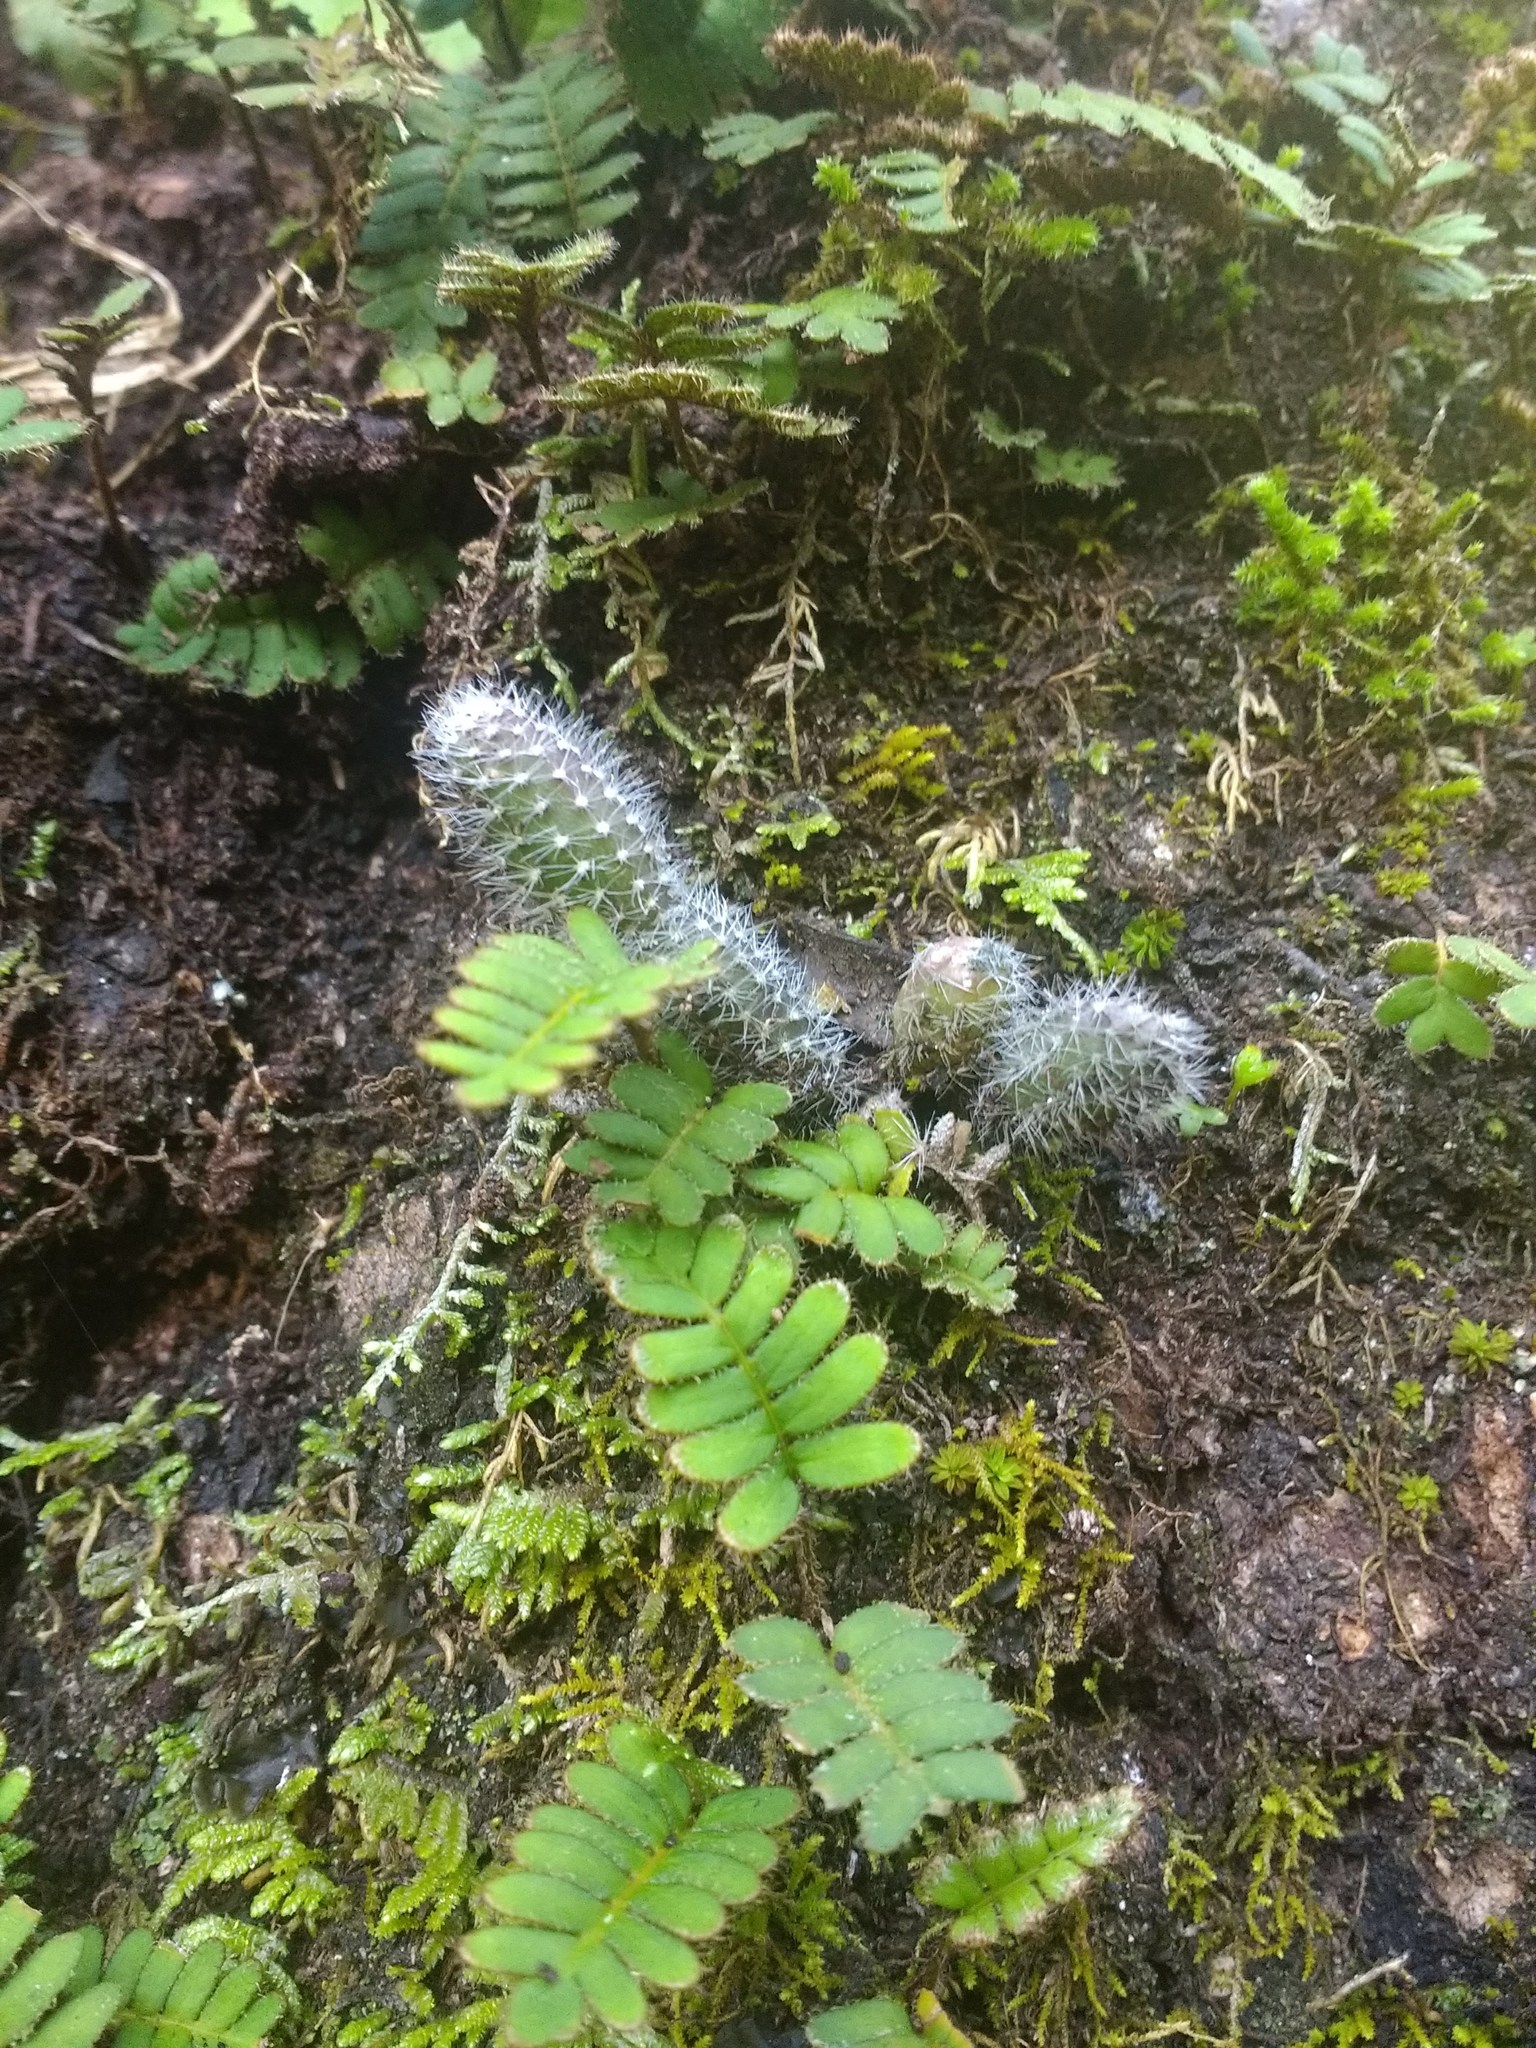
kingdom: Plantae
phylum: Tracheophyta
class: Magnoliopsida
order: Caryophyllales
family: Cactaceae
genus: Pfeiffera
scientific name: Pfeiffera ianthothele
